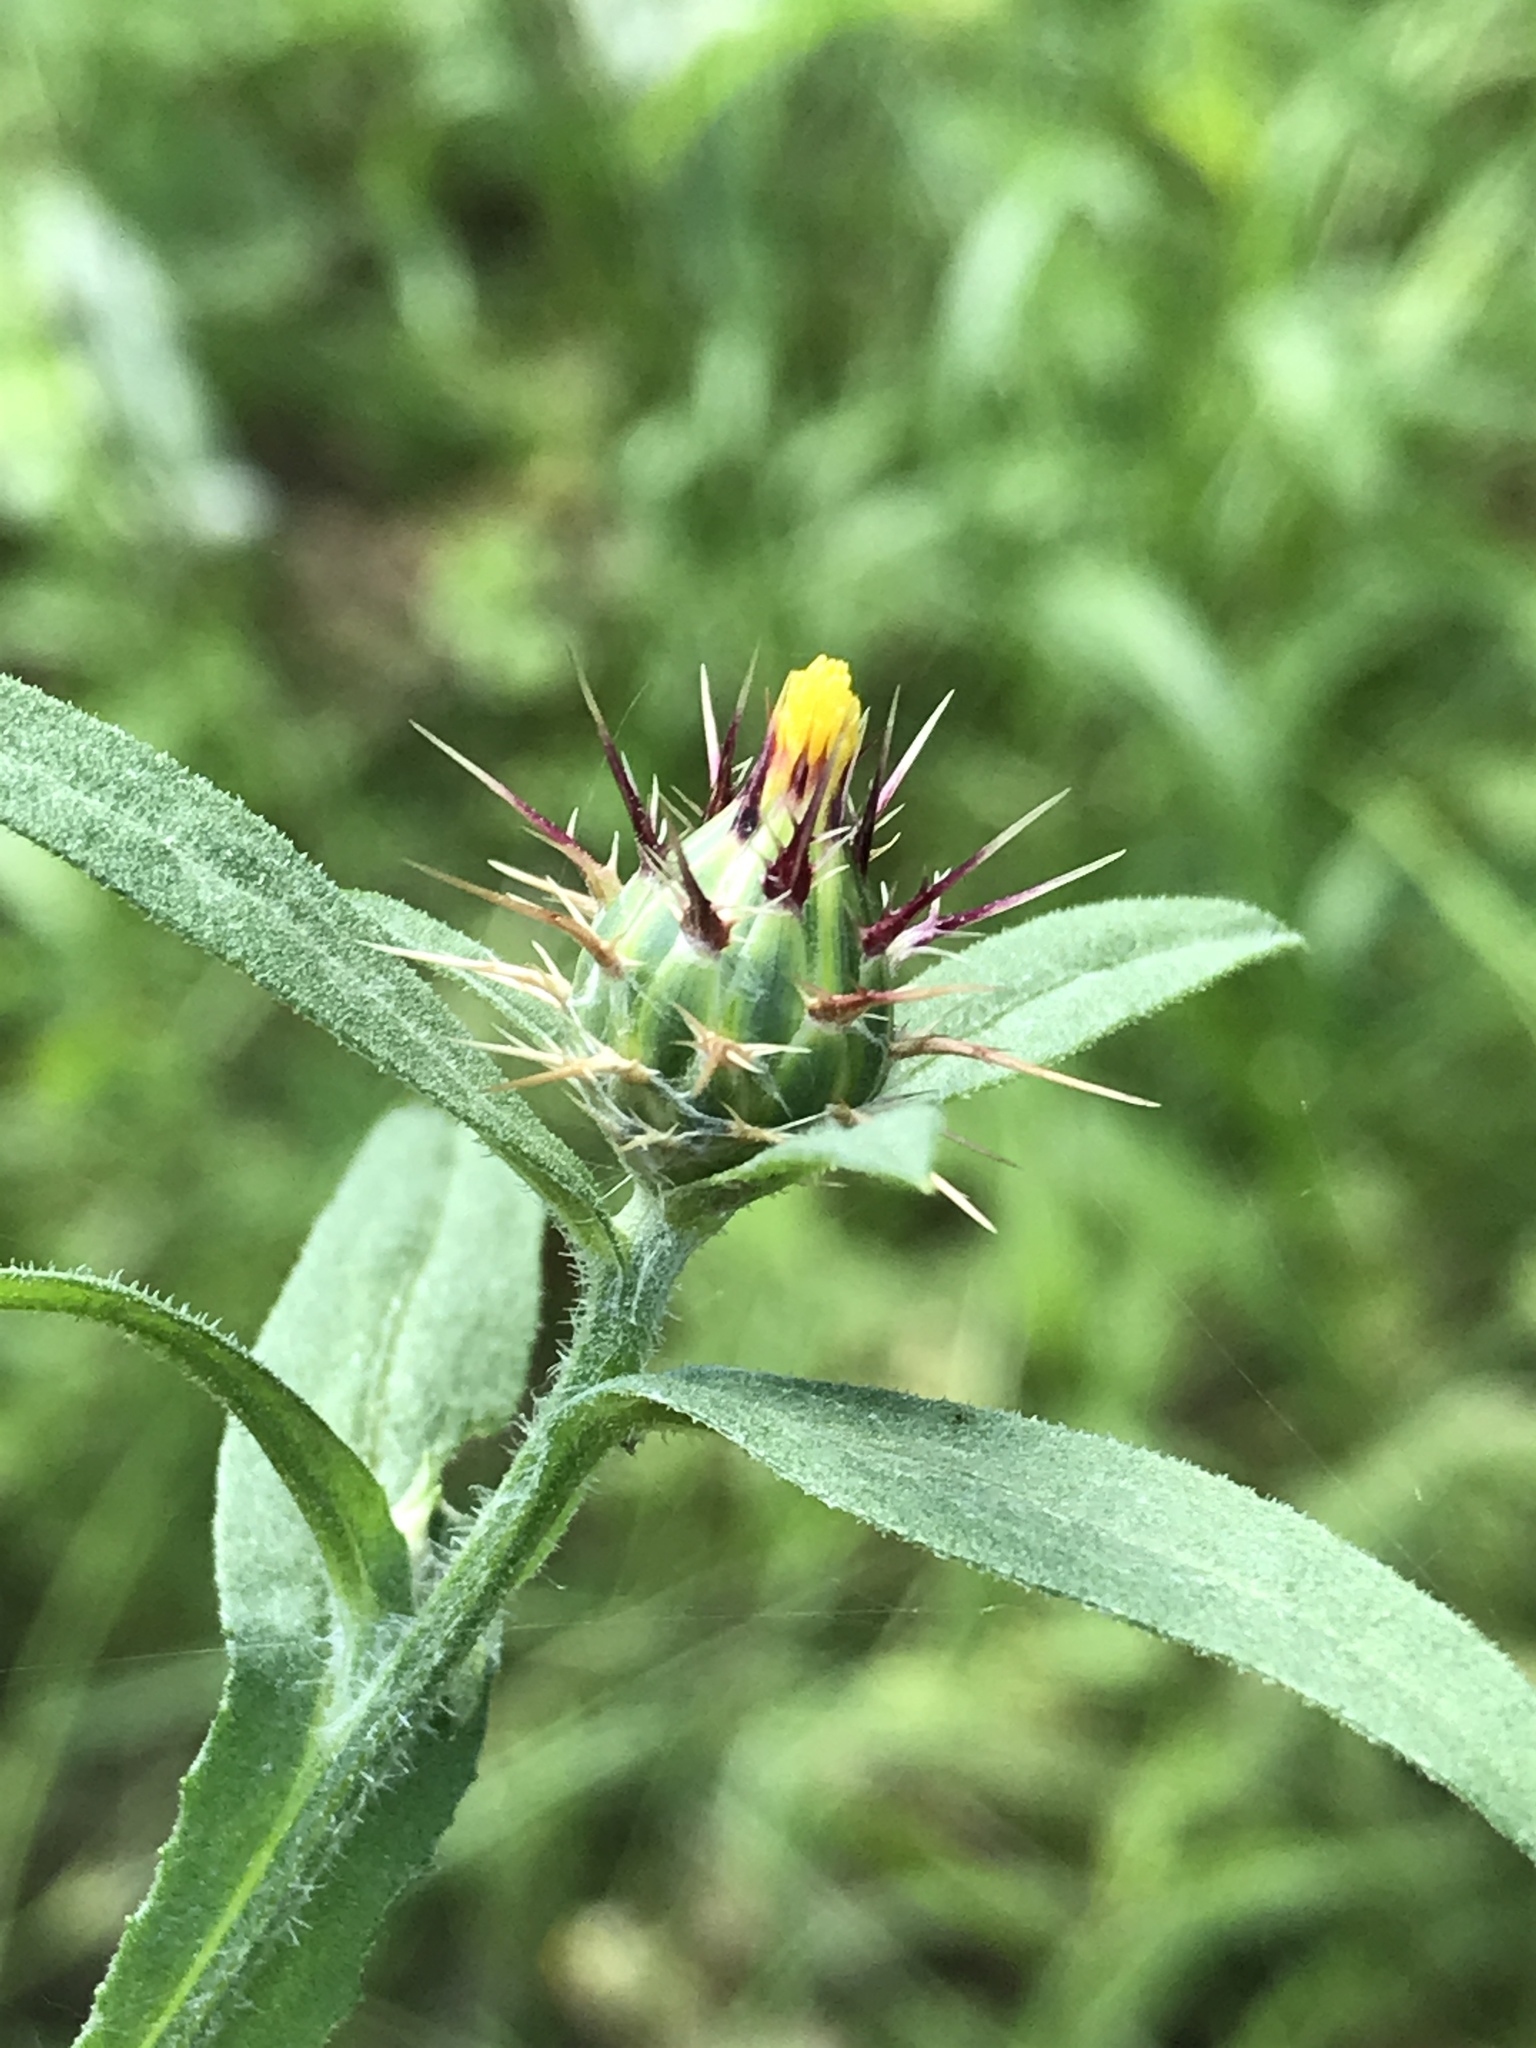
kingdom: Plantae
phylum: Tracheophyta
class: Magnoliopsida
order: Asterales
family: Asteraceae
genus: Centaurea
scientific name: Centaurea melitensis
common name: Maltese star-thistle
